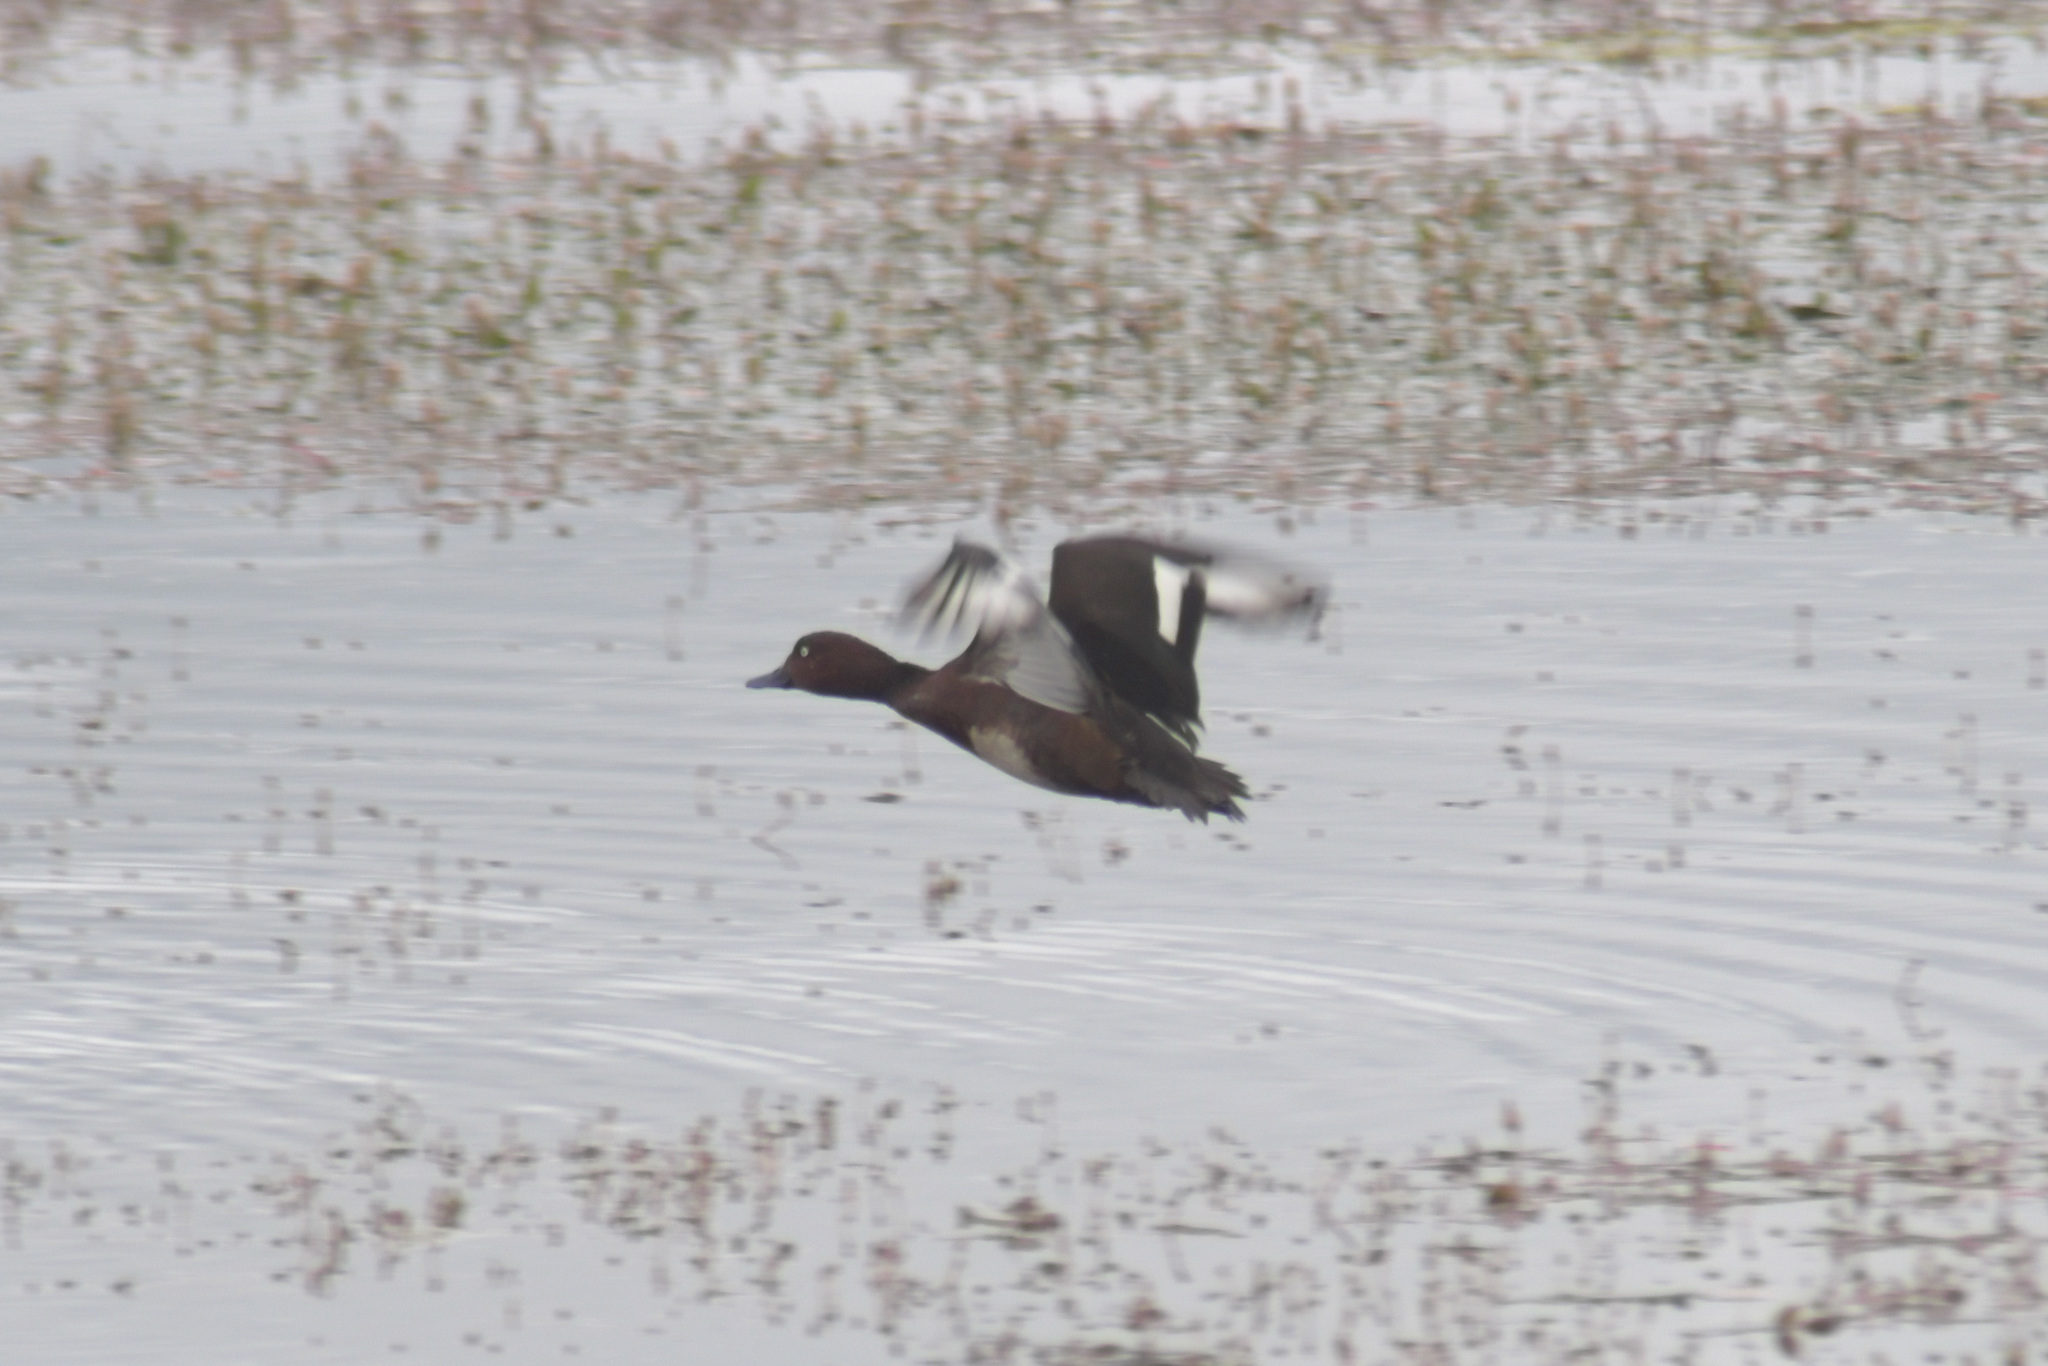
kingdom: Animalia
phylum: Chordata
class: Aves
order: Anseriformes
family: Anatidae
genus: Aythya
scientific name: Aythya nyroca
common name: Ferruginous duck
